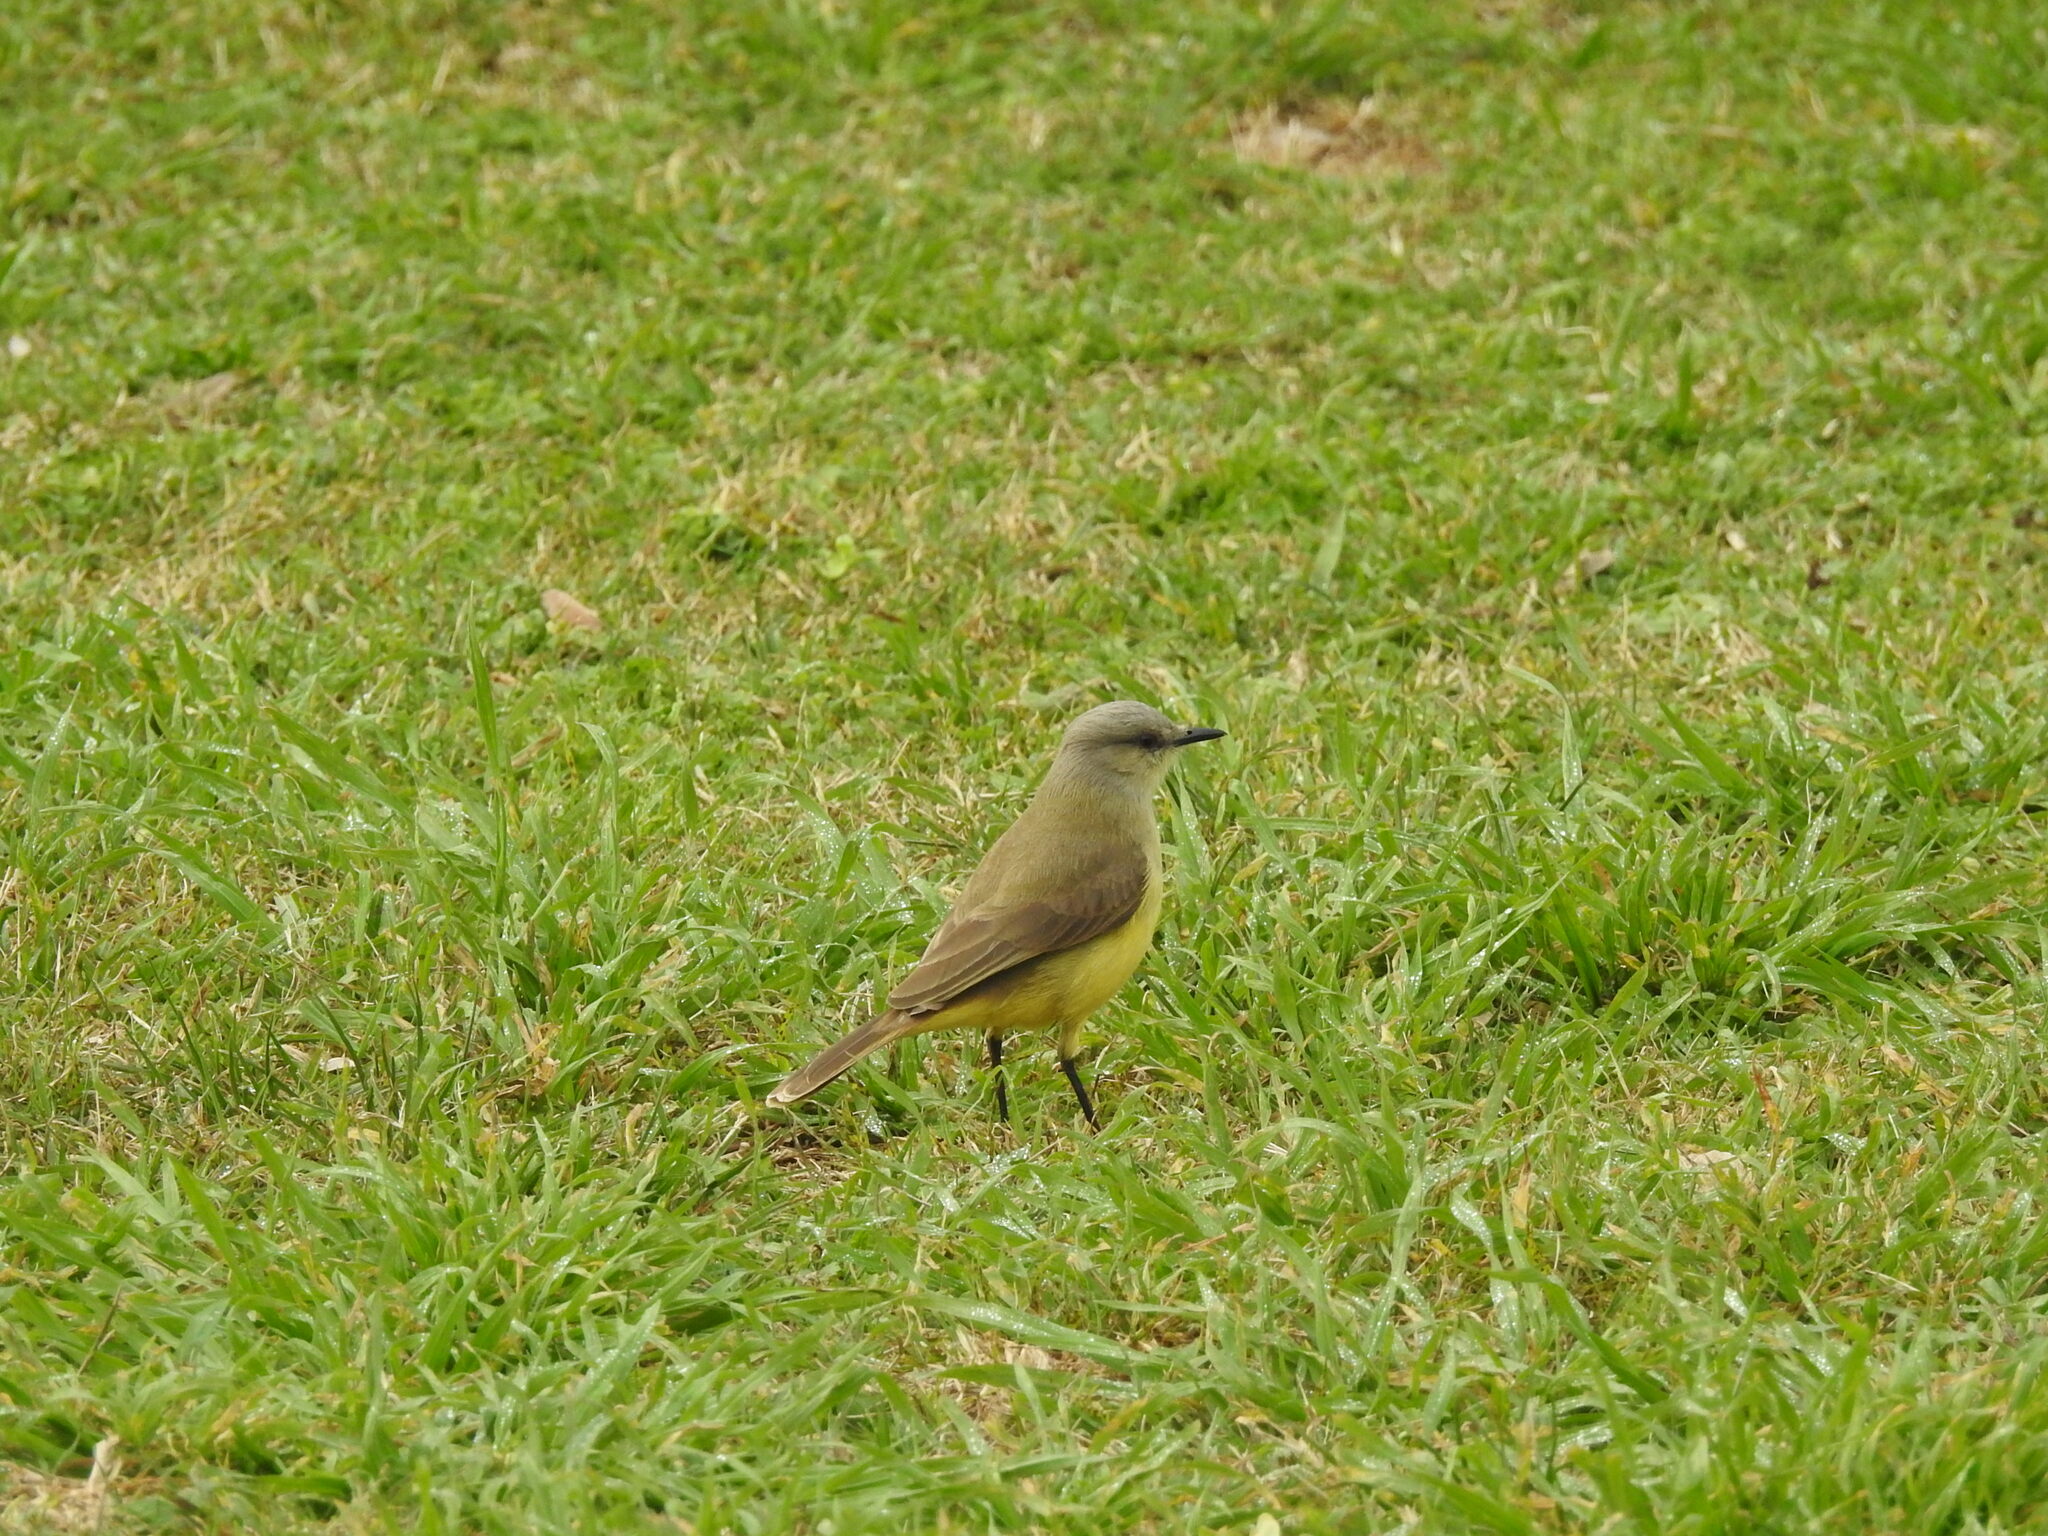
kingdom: Animalia
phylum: Chordata
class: Aves
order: Passeriformes
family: Tyrannidae
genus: Machetornis
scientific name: Machetornis rixosa
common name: Cattle tyrant
